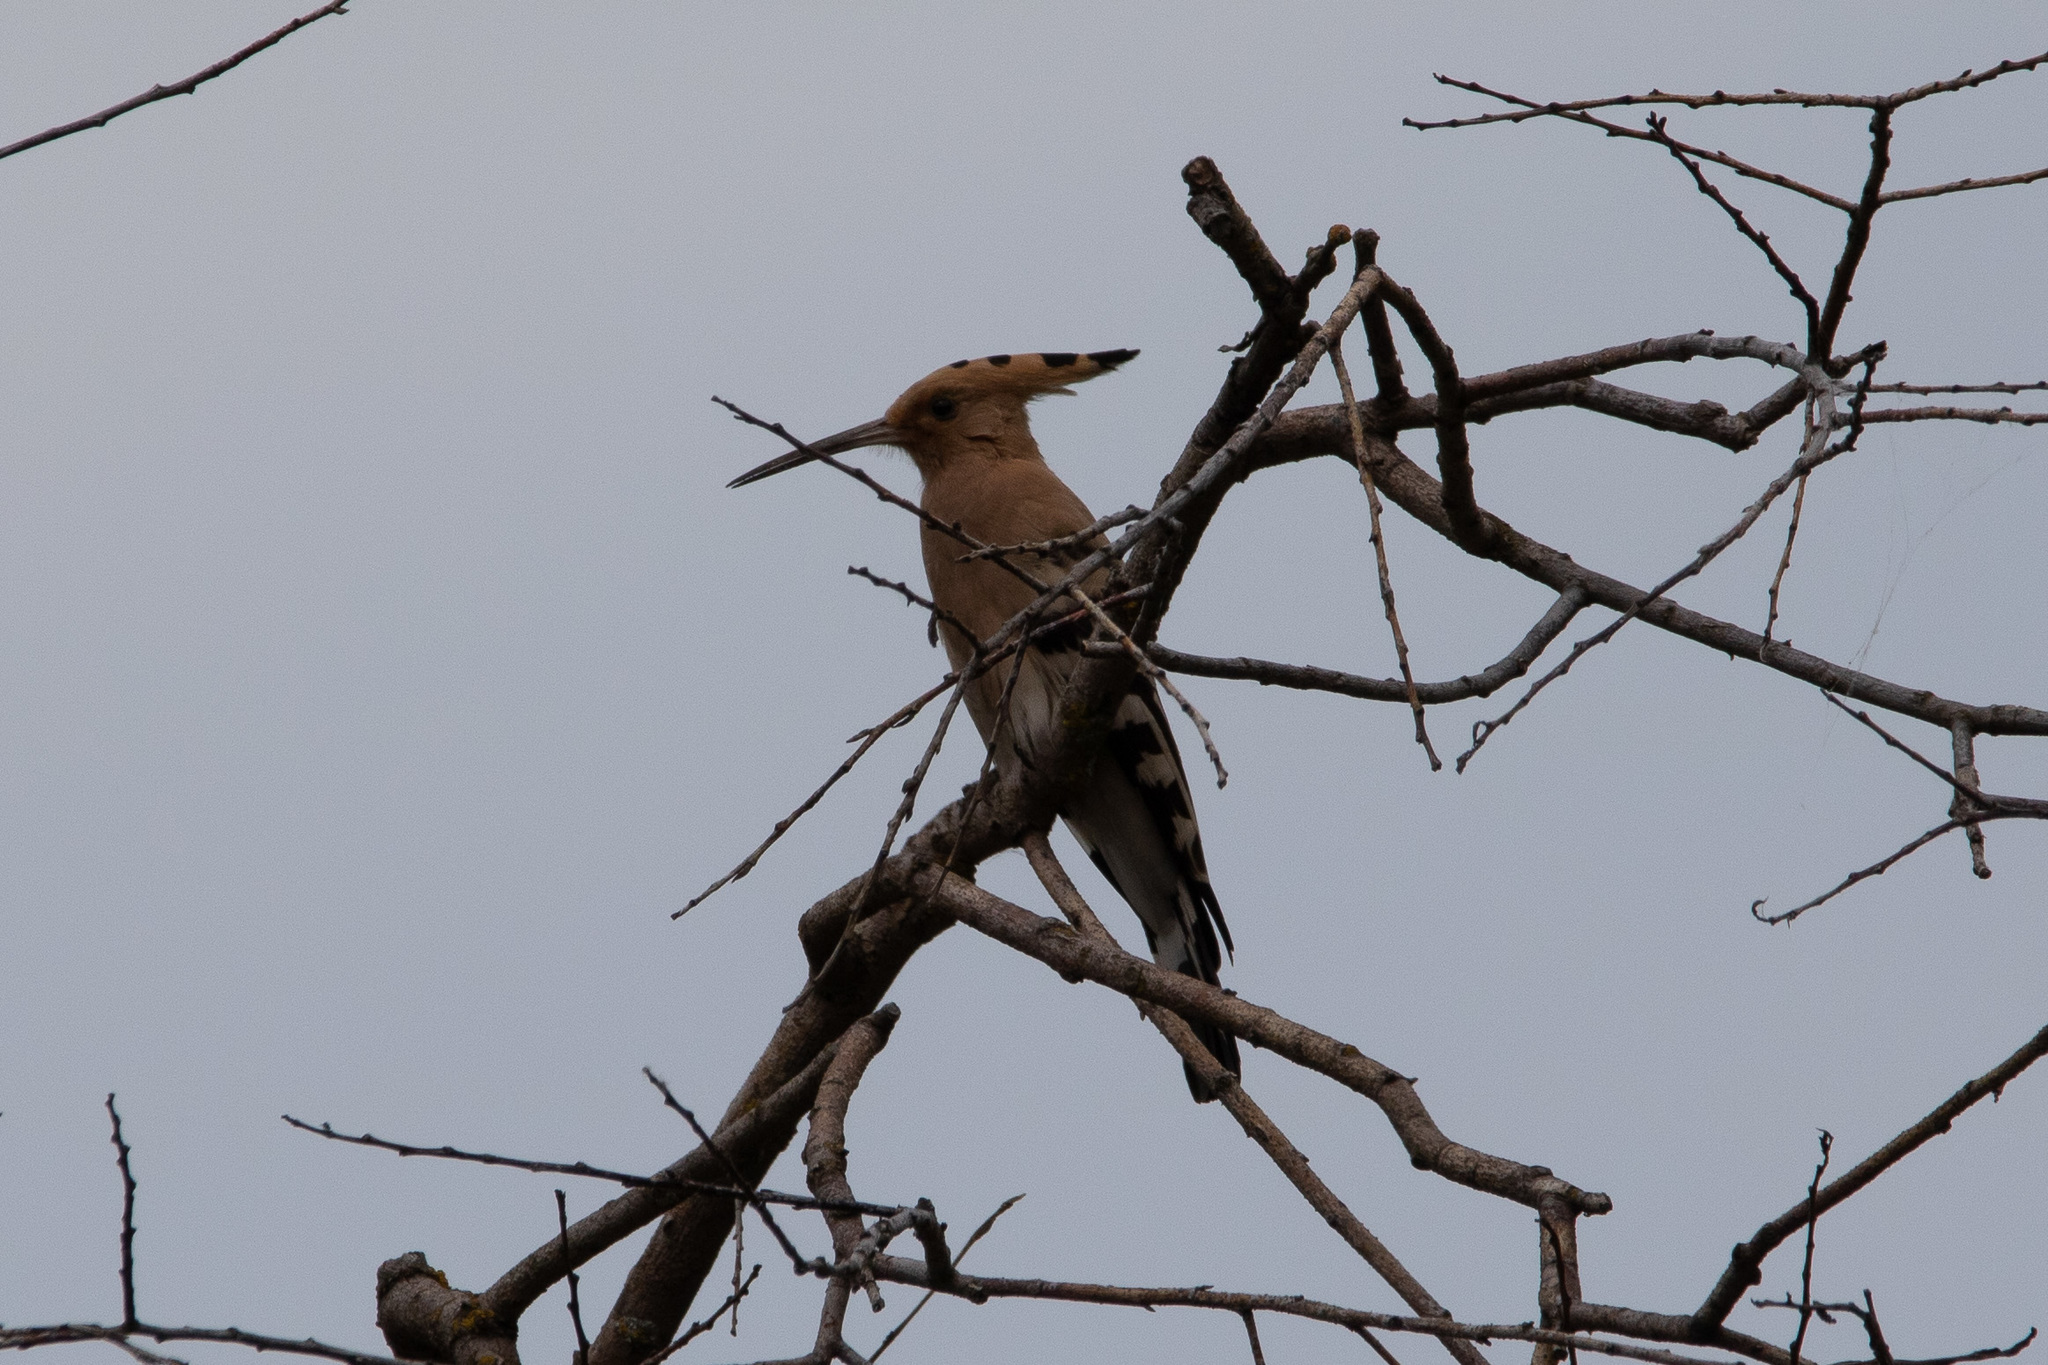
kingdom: Animalia
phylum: Chordata
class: Aves
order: Bucerotiformes
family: Upupidae
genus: Upupa
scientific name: Upupa epops
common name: Eurasian hoopoe
